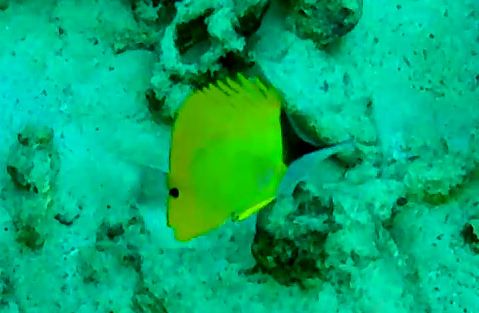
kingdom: Animalia
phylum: Chordata
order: Perciformes
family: Chaetodontidae
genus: Forcipiger
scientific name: Forcipiger flavissimus
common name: Forcepsfish
